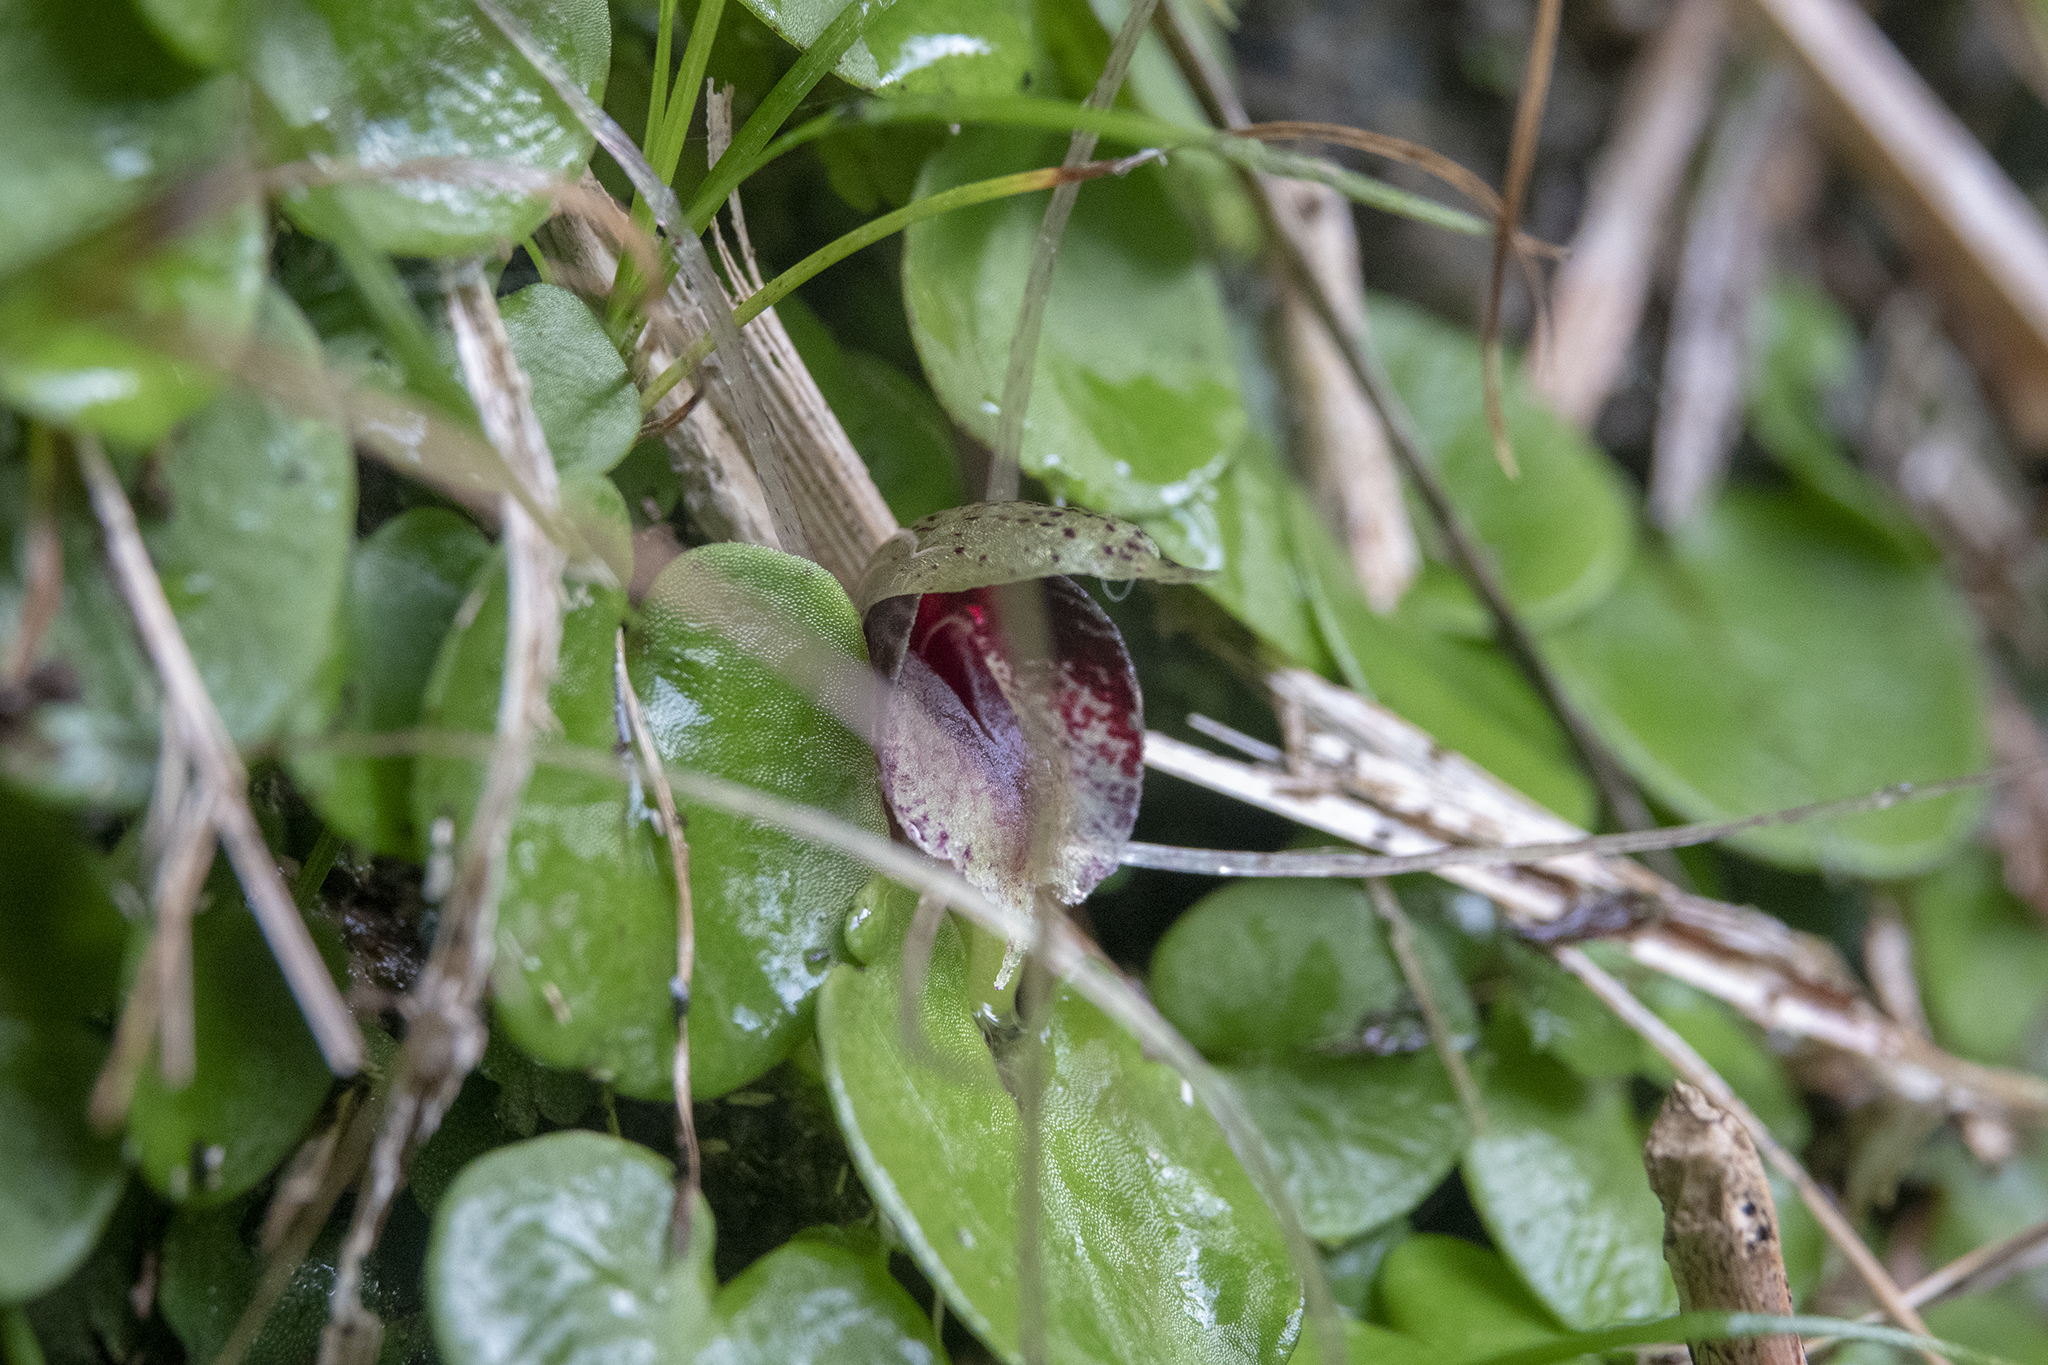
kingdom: Plantae
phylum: Tracheophyta
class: Liliopsida
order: Asparagales
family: Orchidaceae
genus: Corybas
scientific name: Corybas hatchii
